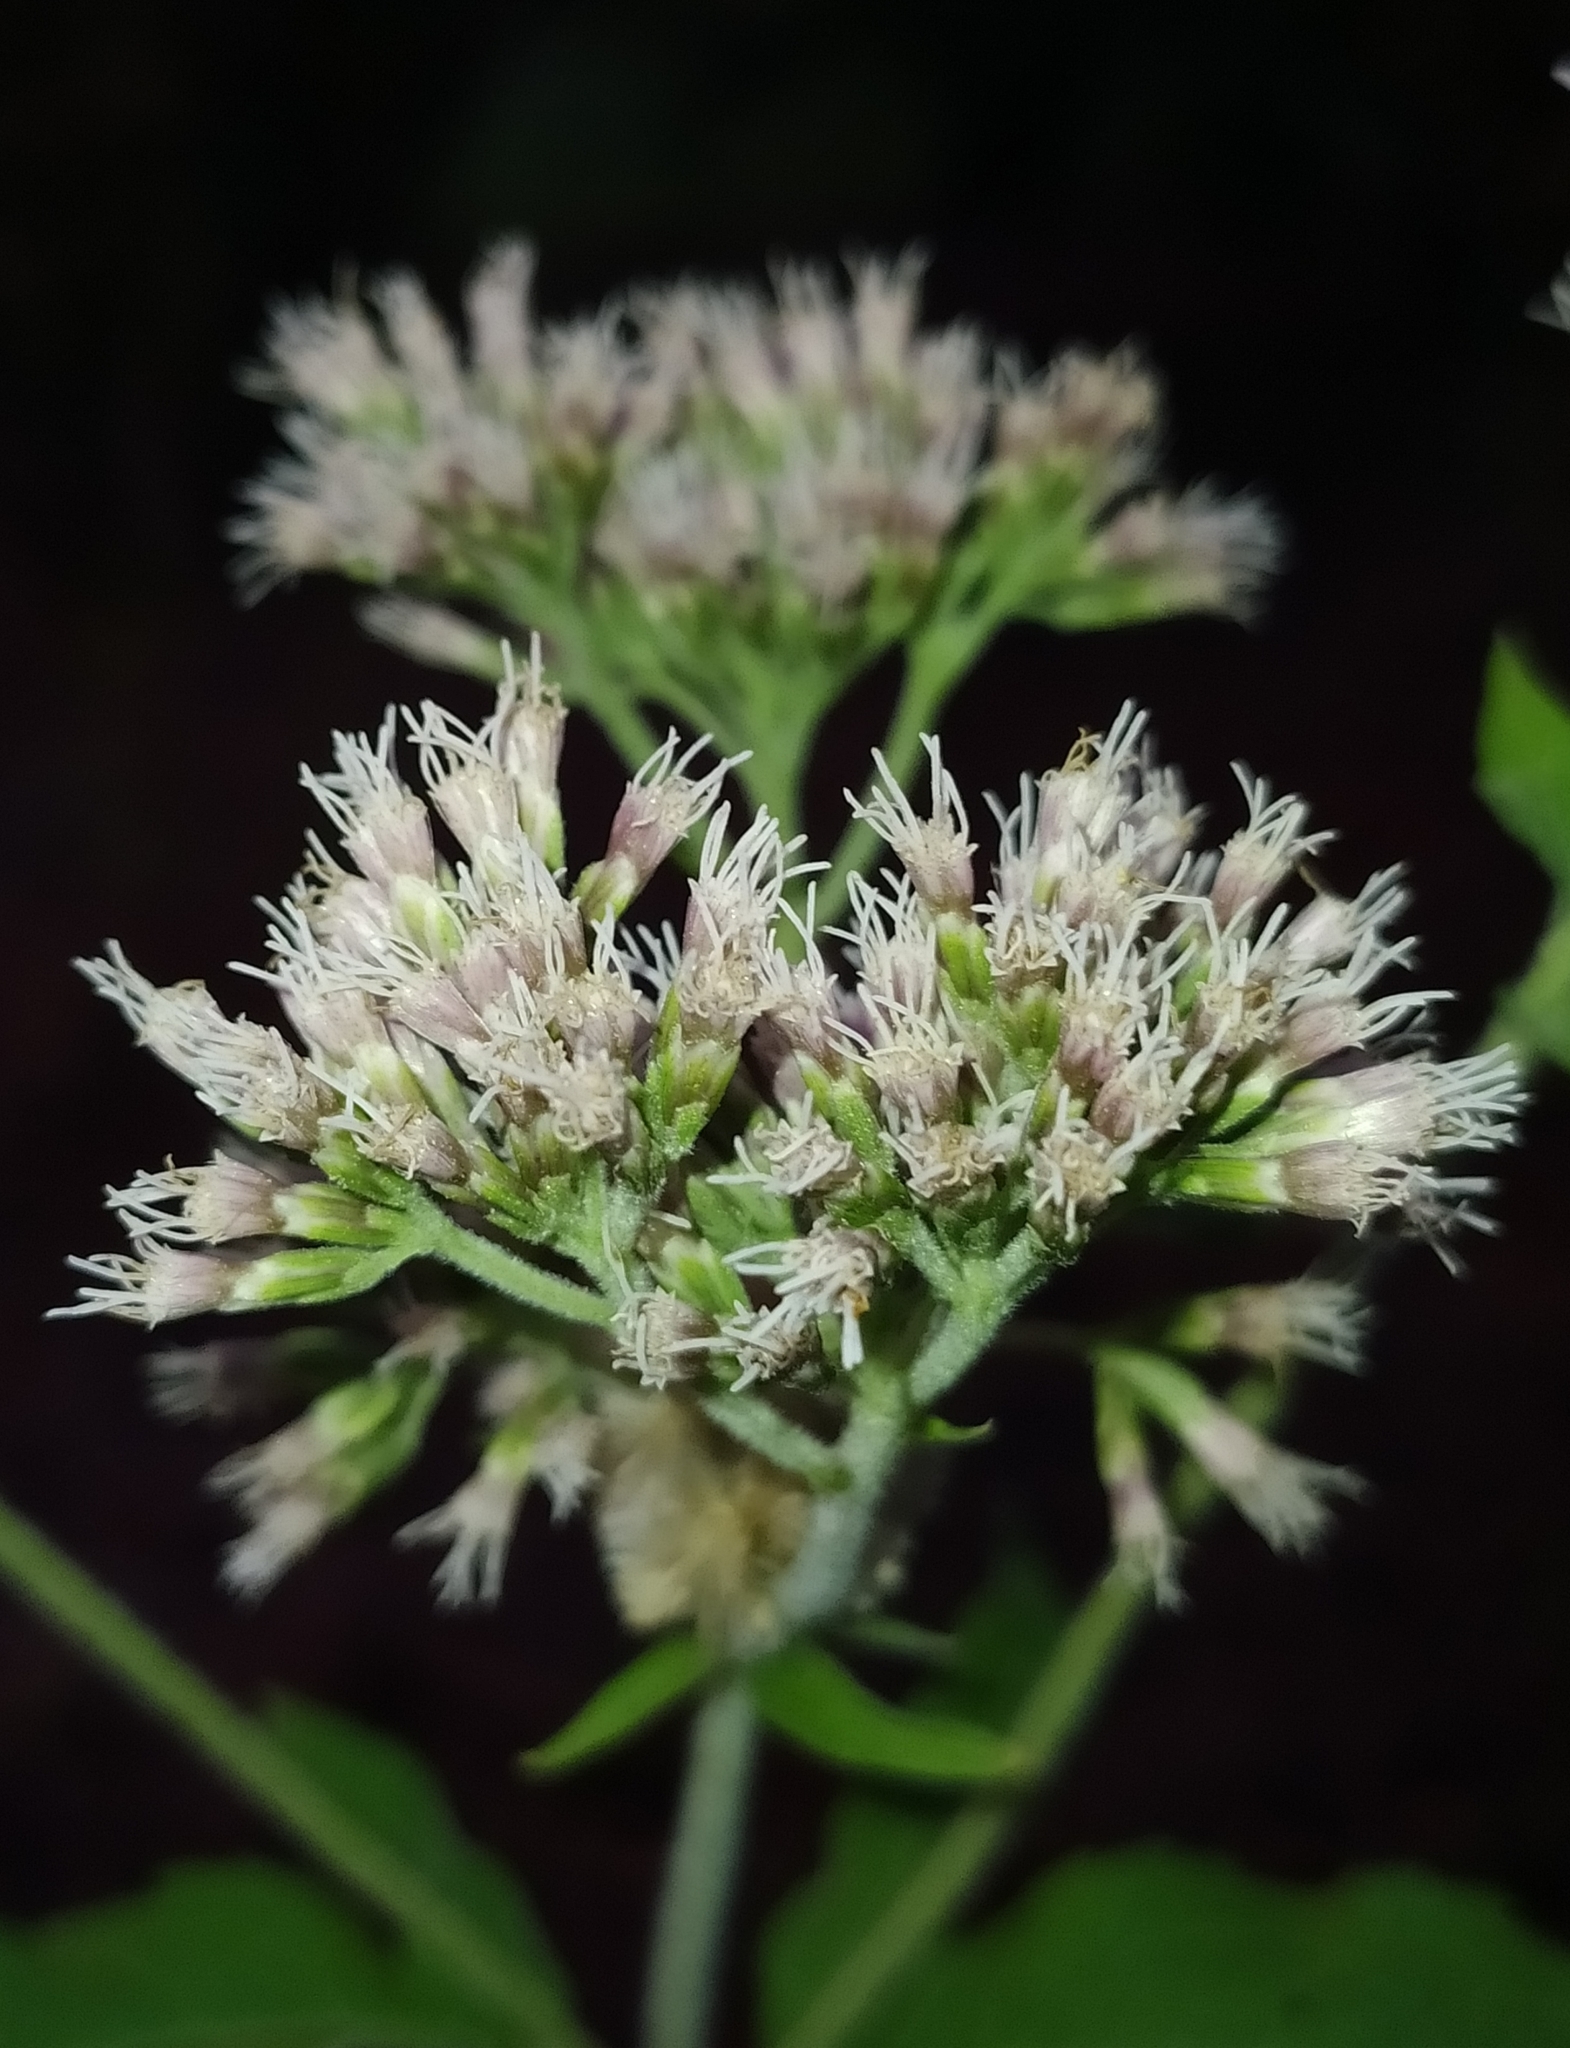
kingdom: Plantae
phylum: Tracheophyta
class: Magnoliopsida
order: Asterales
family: Asteraceae
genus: Eupatorium
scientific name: Eupatorium cannabinum
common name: Hemp-agrimony
